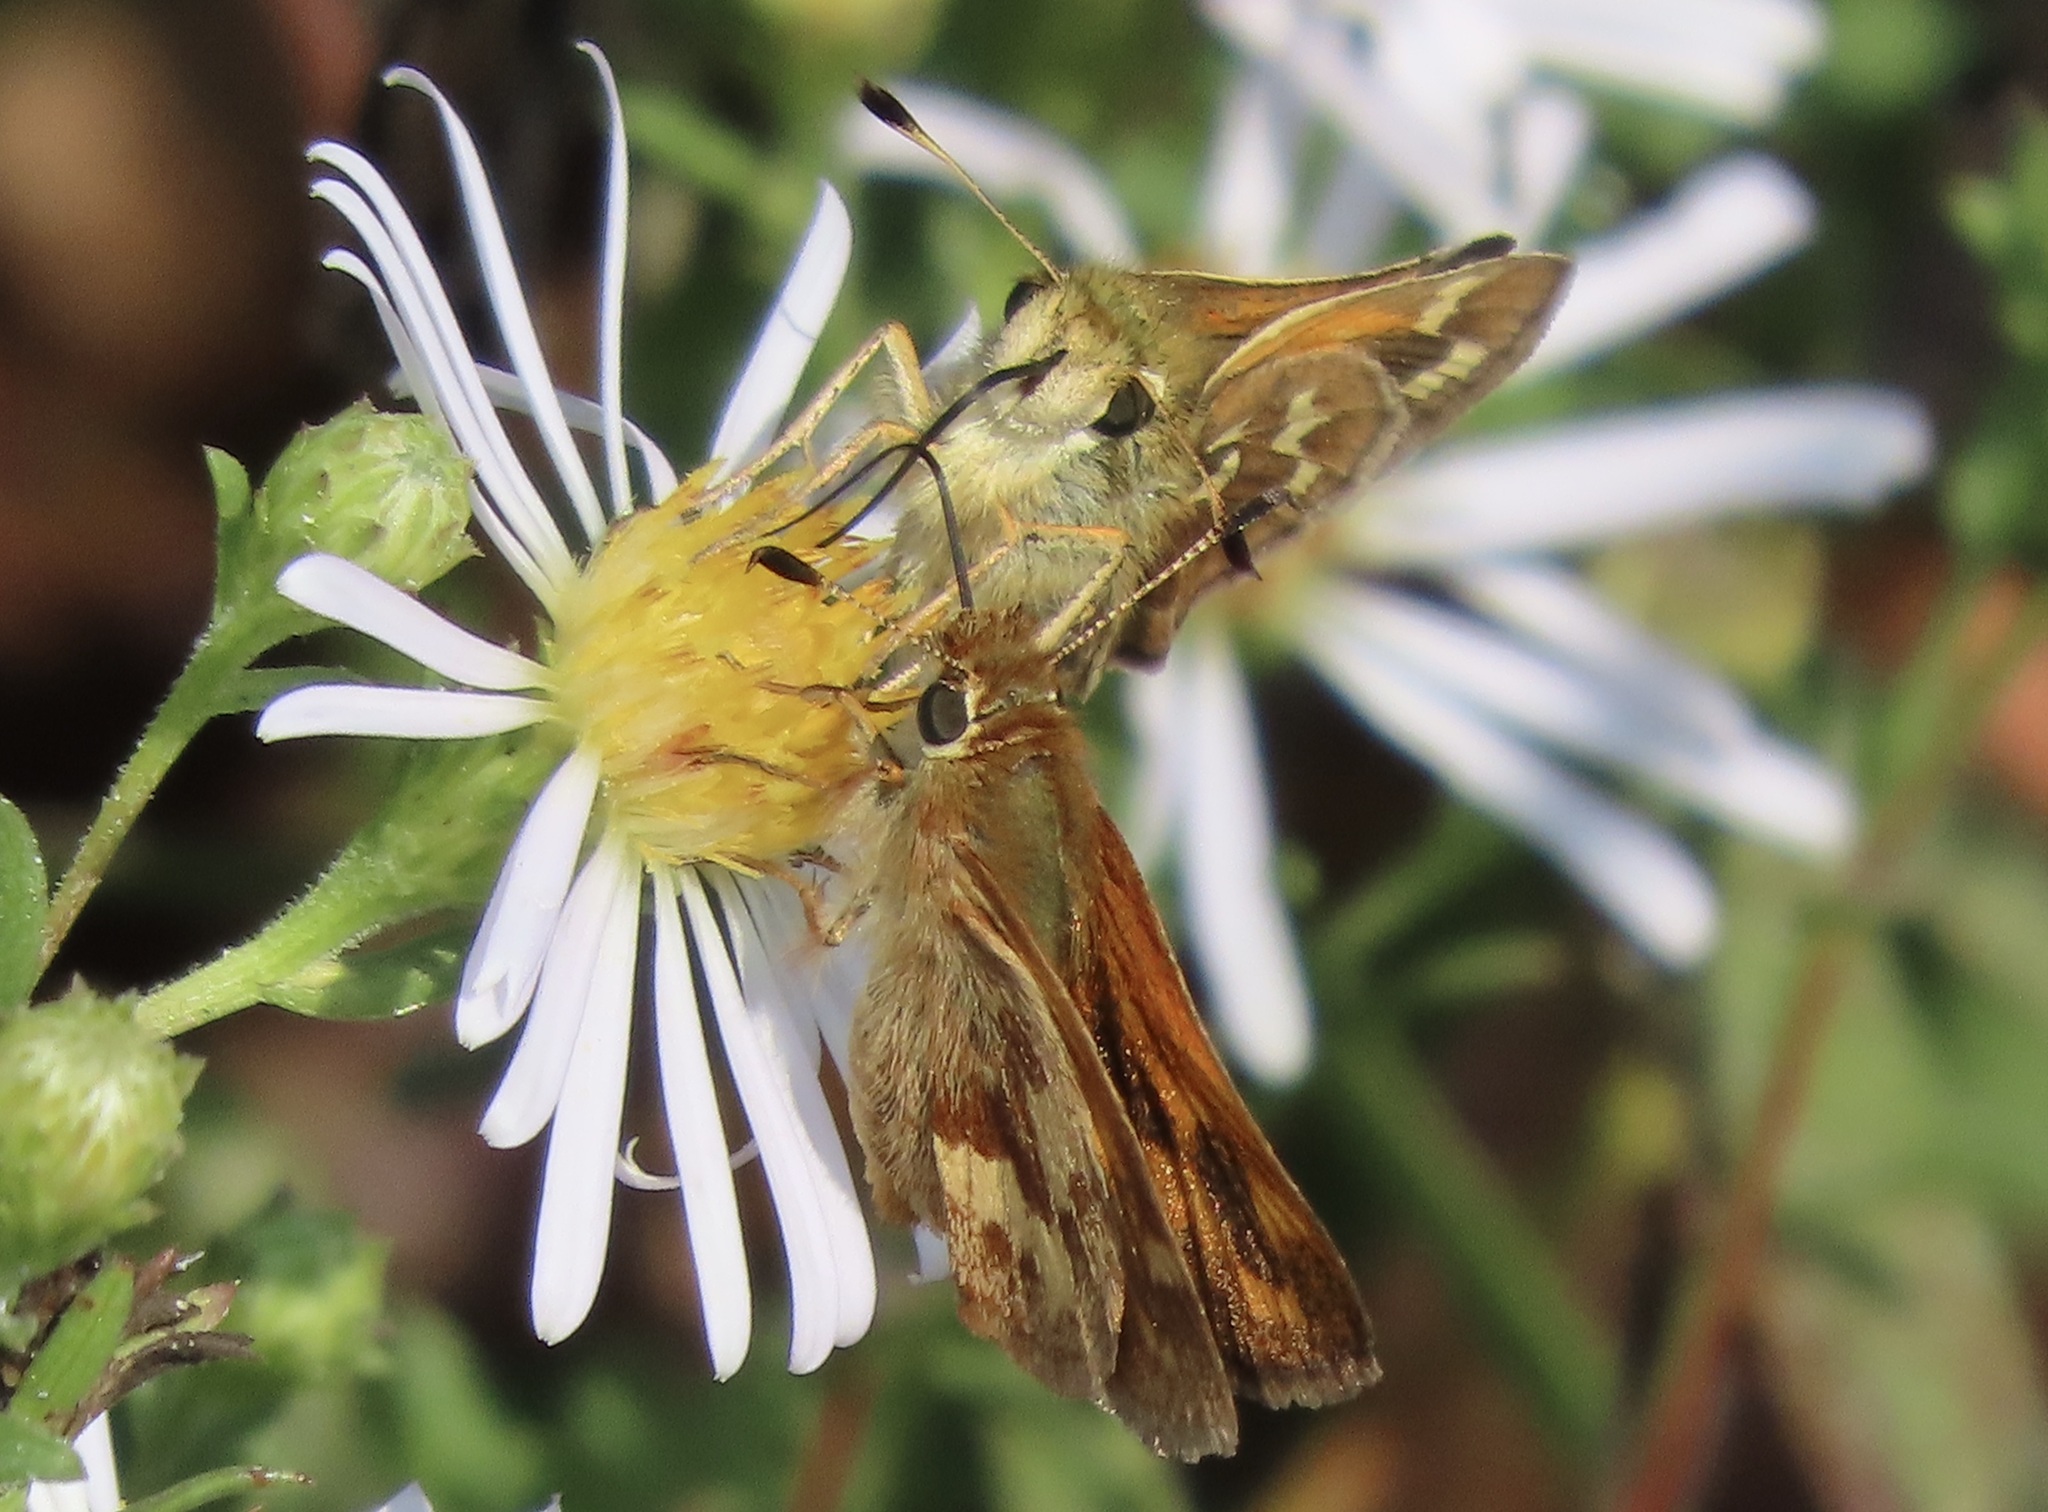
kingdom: Animalia
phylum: Arthropoda
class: Insecta
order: Lepidoptera
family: Hesperiidae
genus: Ochlodes
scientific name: Ochlodes sylvanoides
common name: Woodland skipper
